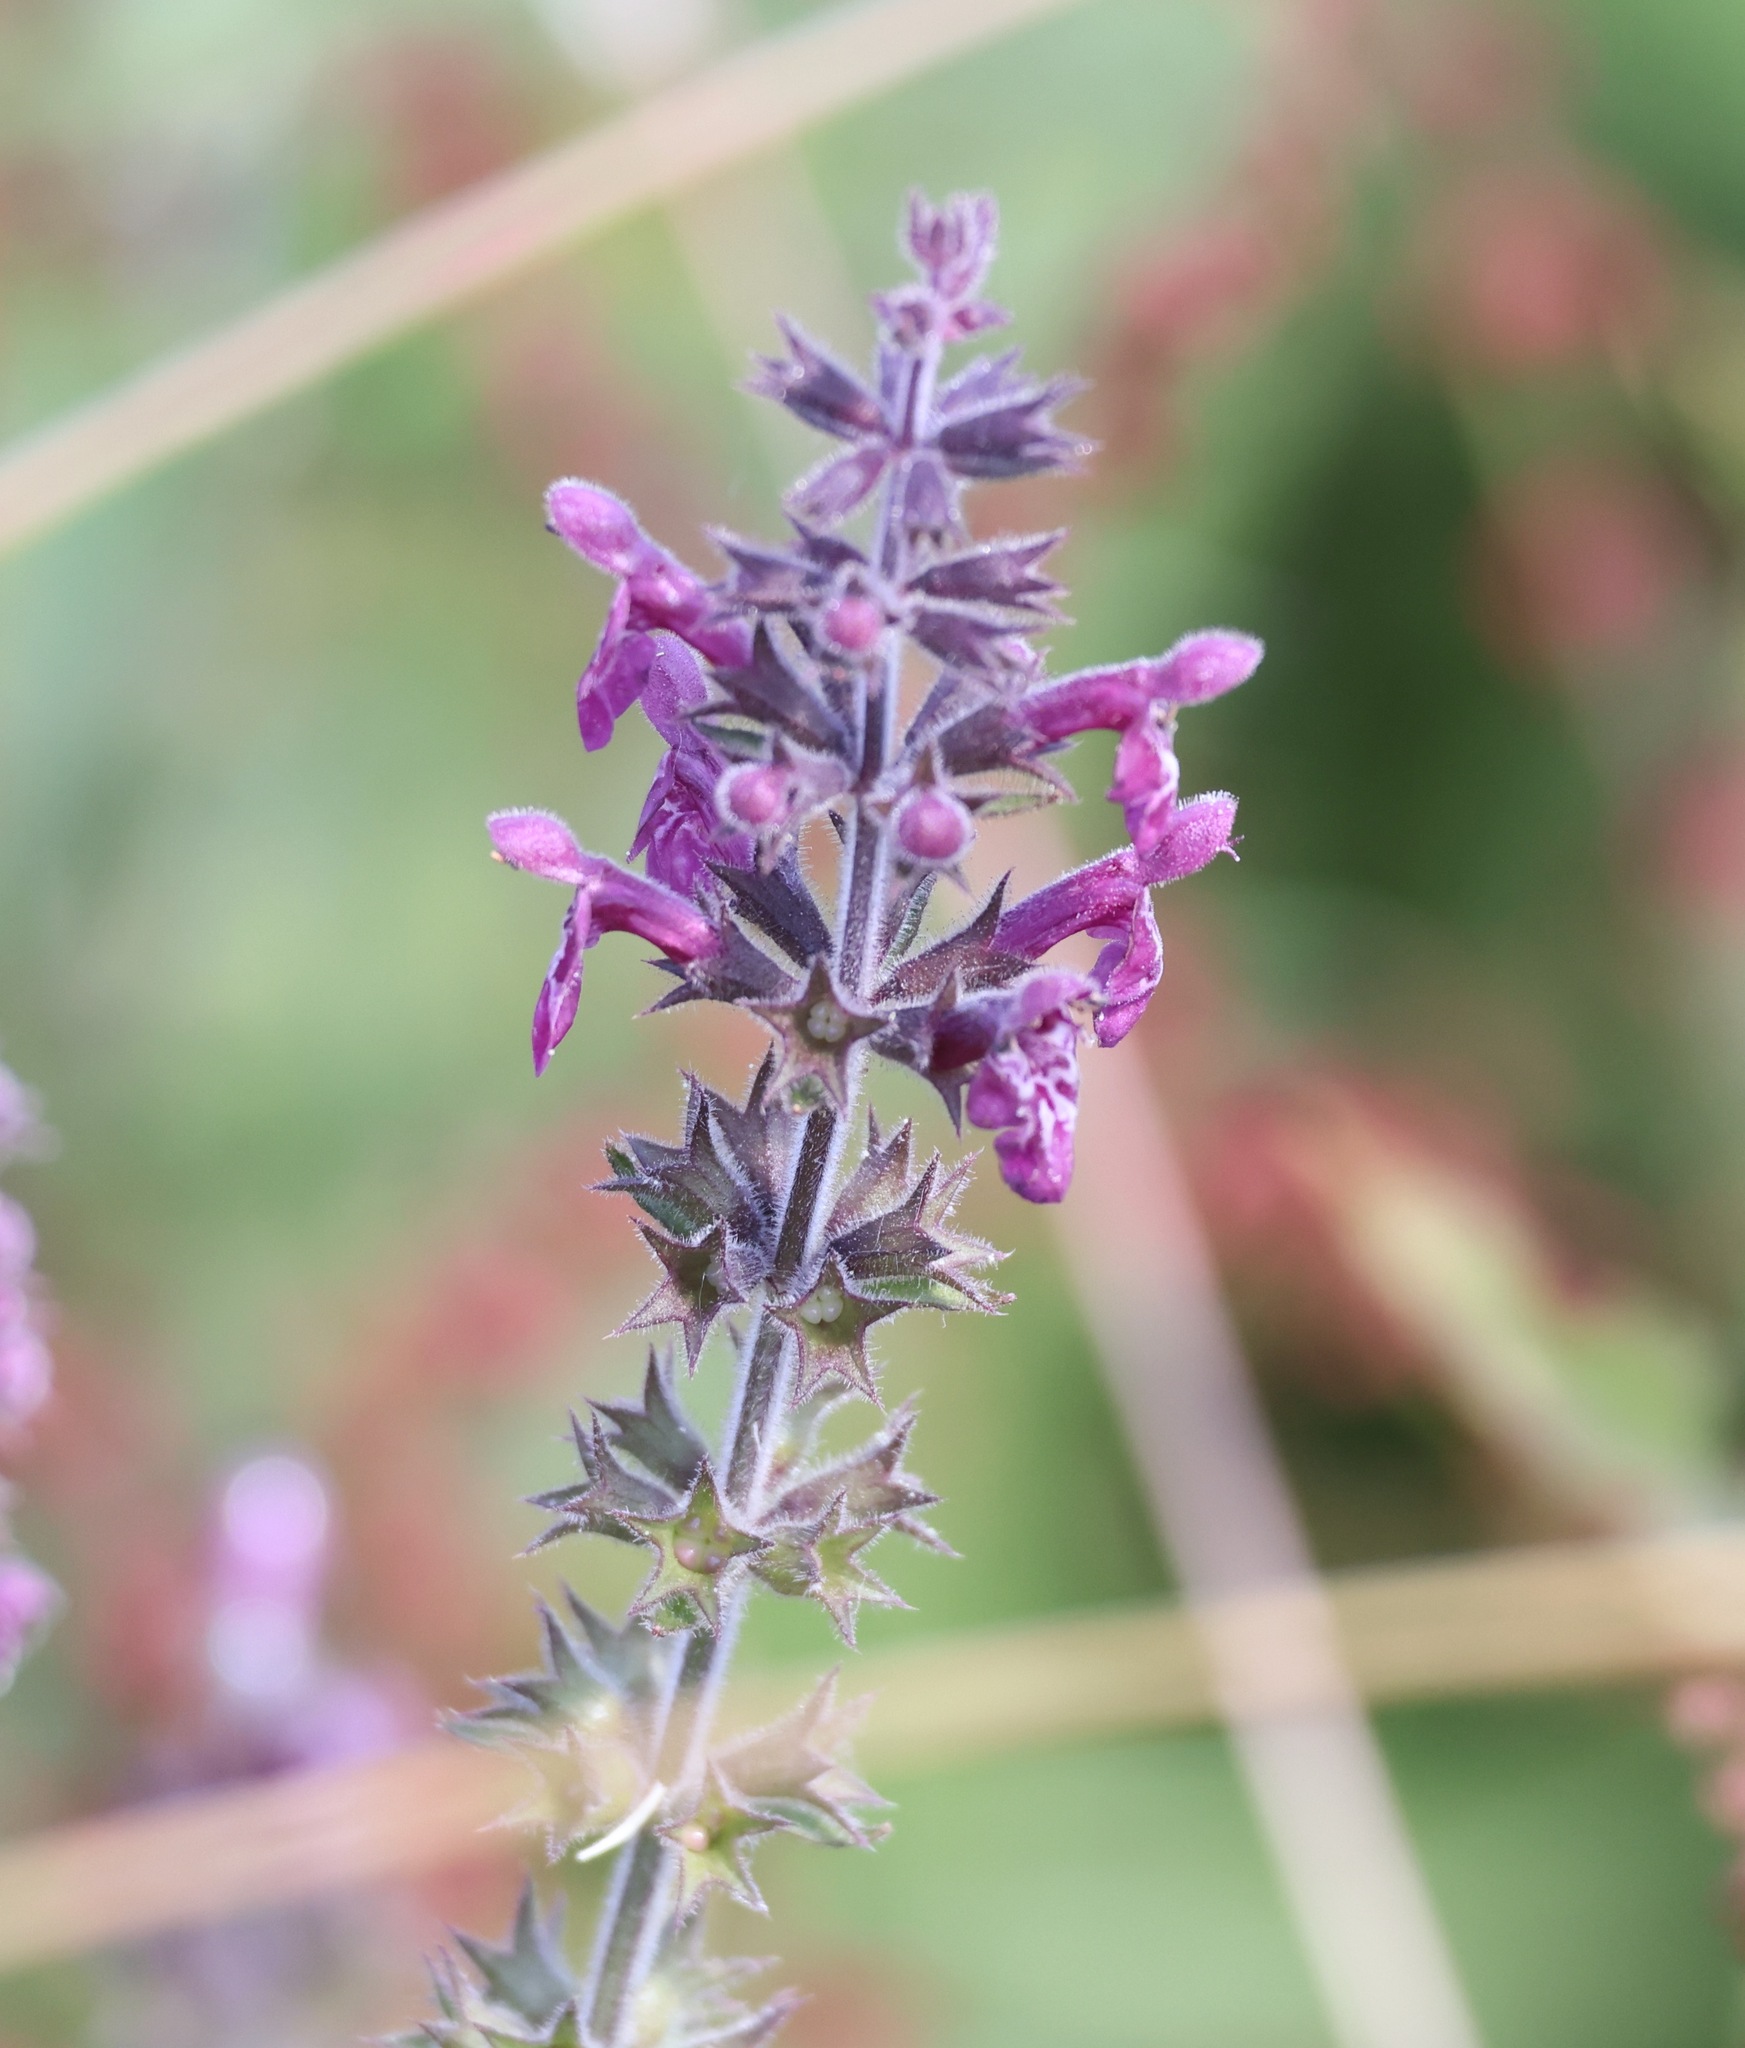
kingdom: Plantae
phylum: Tracheophyta
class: Magnoliopsida
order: Lamiales
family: Lamiaceae
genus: Stachys
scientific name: Stachys sylvatica
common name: Hedge woundwort
